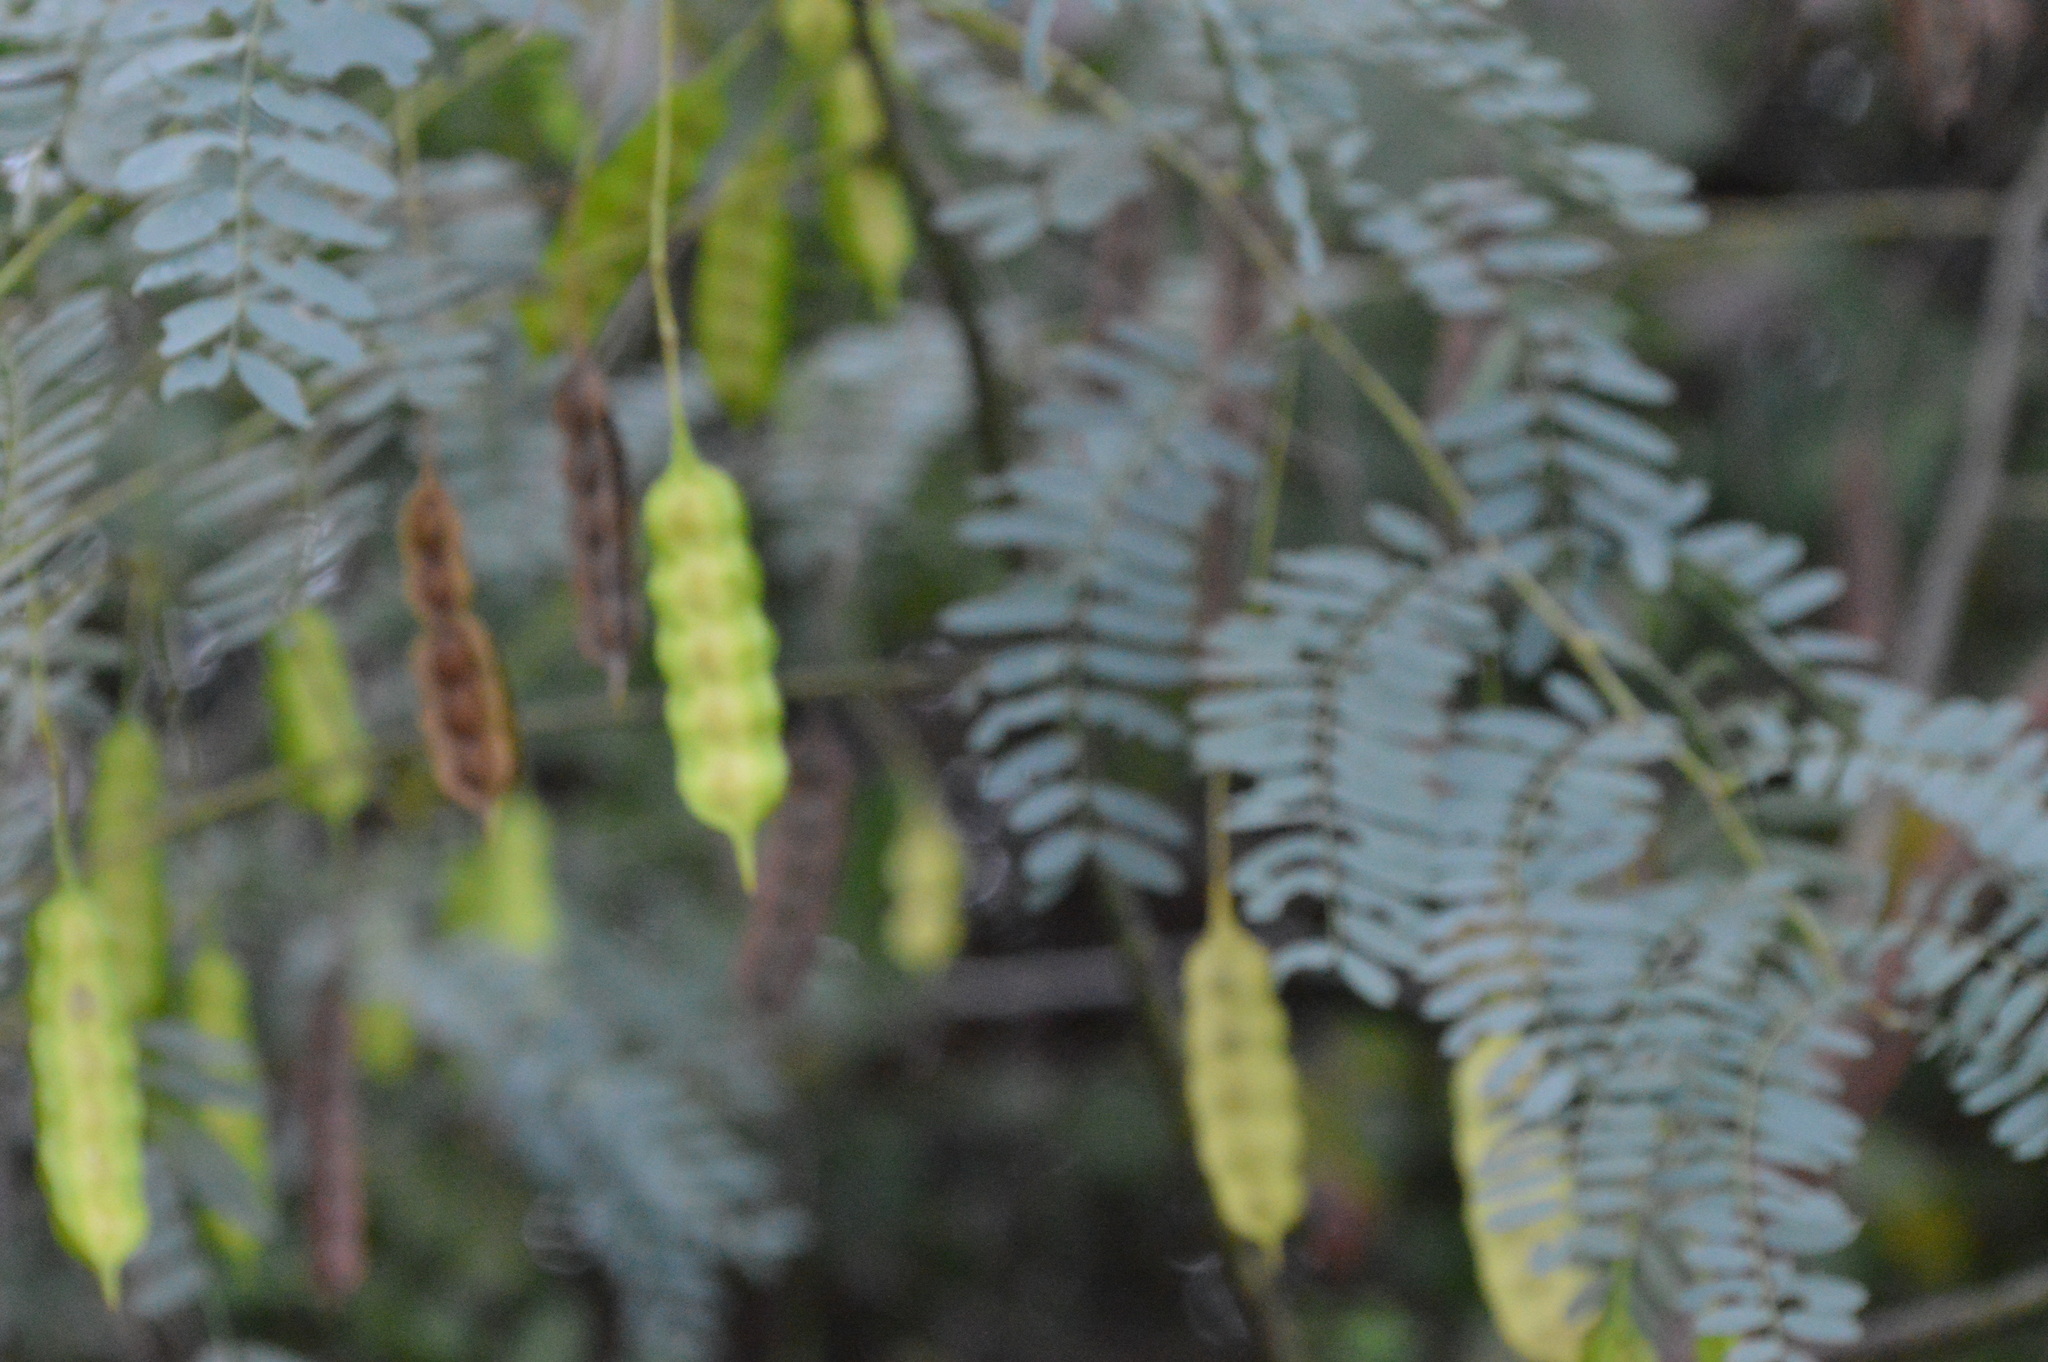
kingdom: Plantae
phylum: Tracheophyta
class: Magnoliopsida
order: Fabales
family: Fabaceae
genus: Sesbania
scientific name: Sesbania drummondii
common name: Poison-bean
